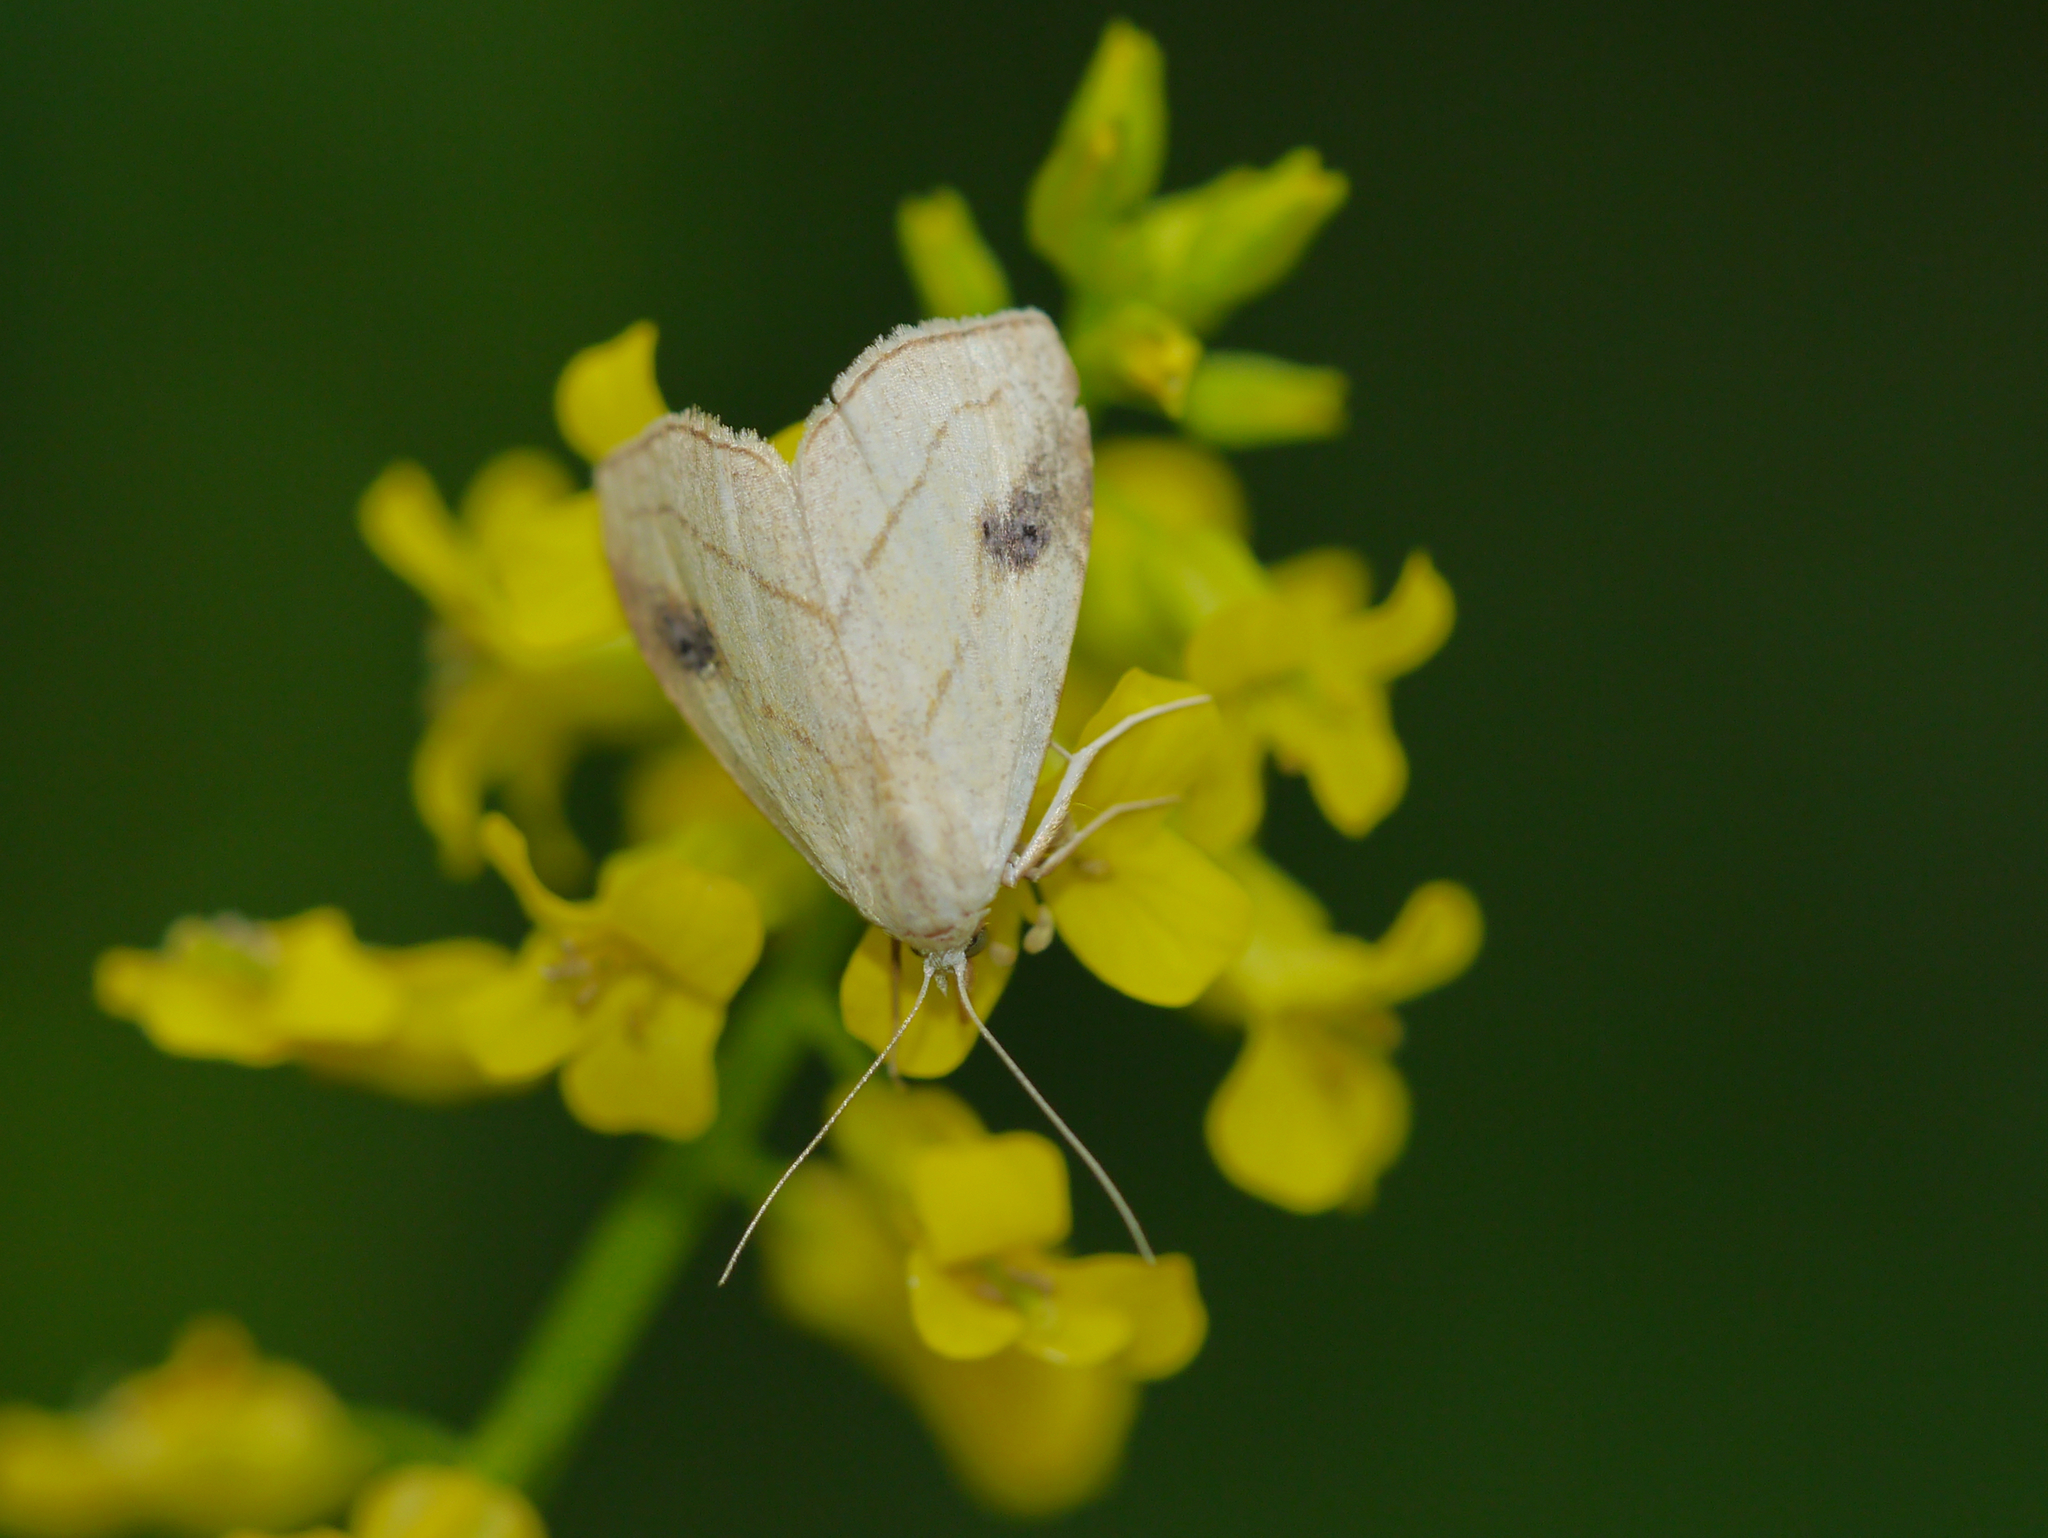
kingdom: Animalia
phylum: Arthropoda
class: Insecta
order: Lepidoptera
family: Erebidae
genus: Rivula
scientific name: Rivula propinqualis
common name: Spotted grass moth
